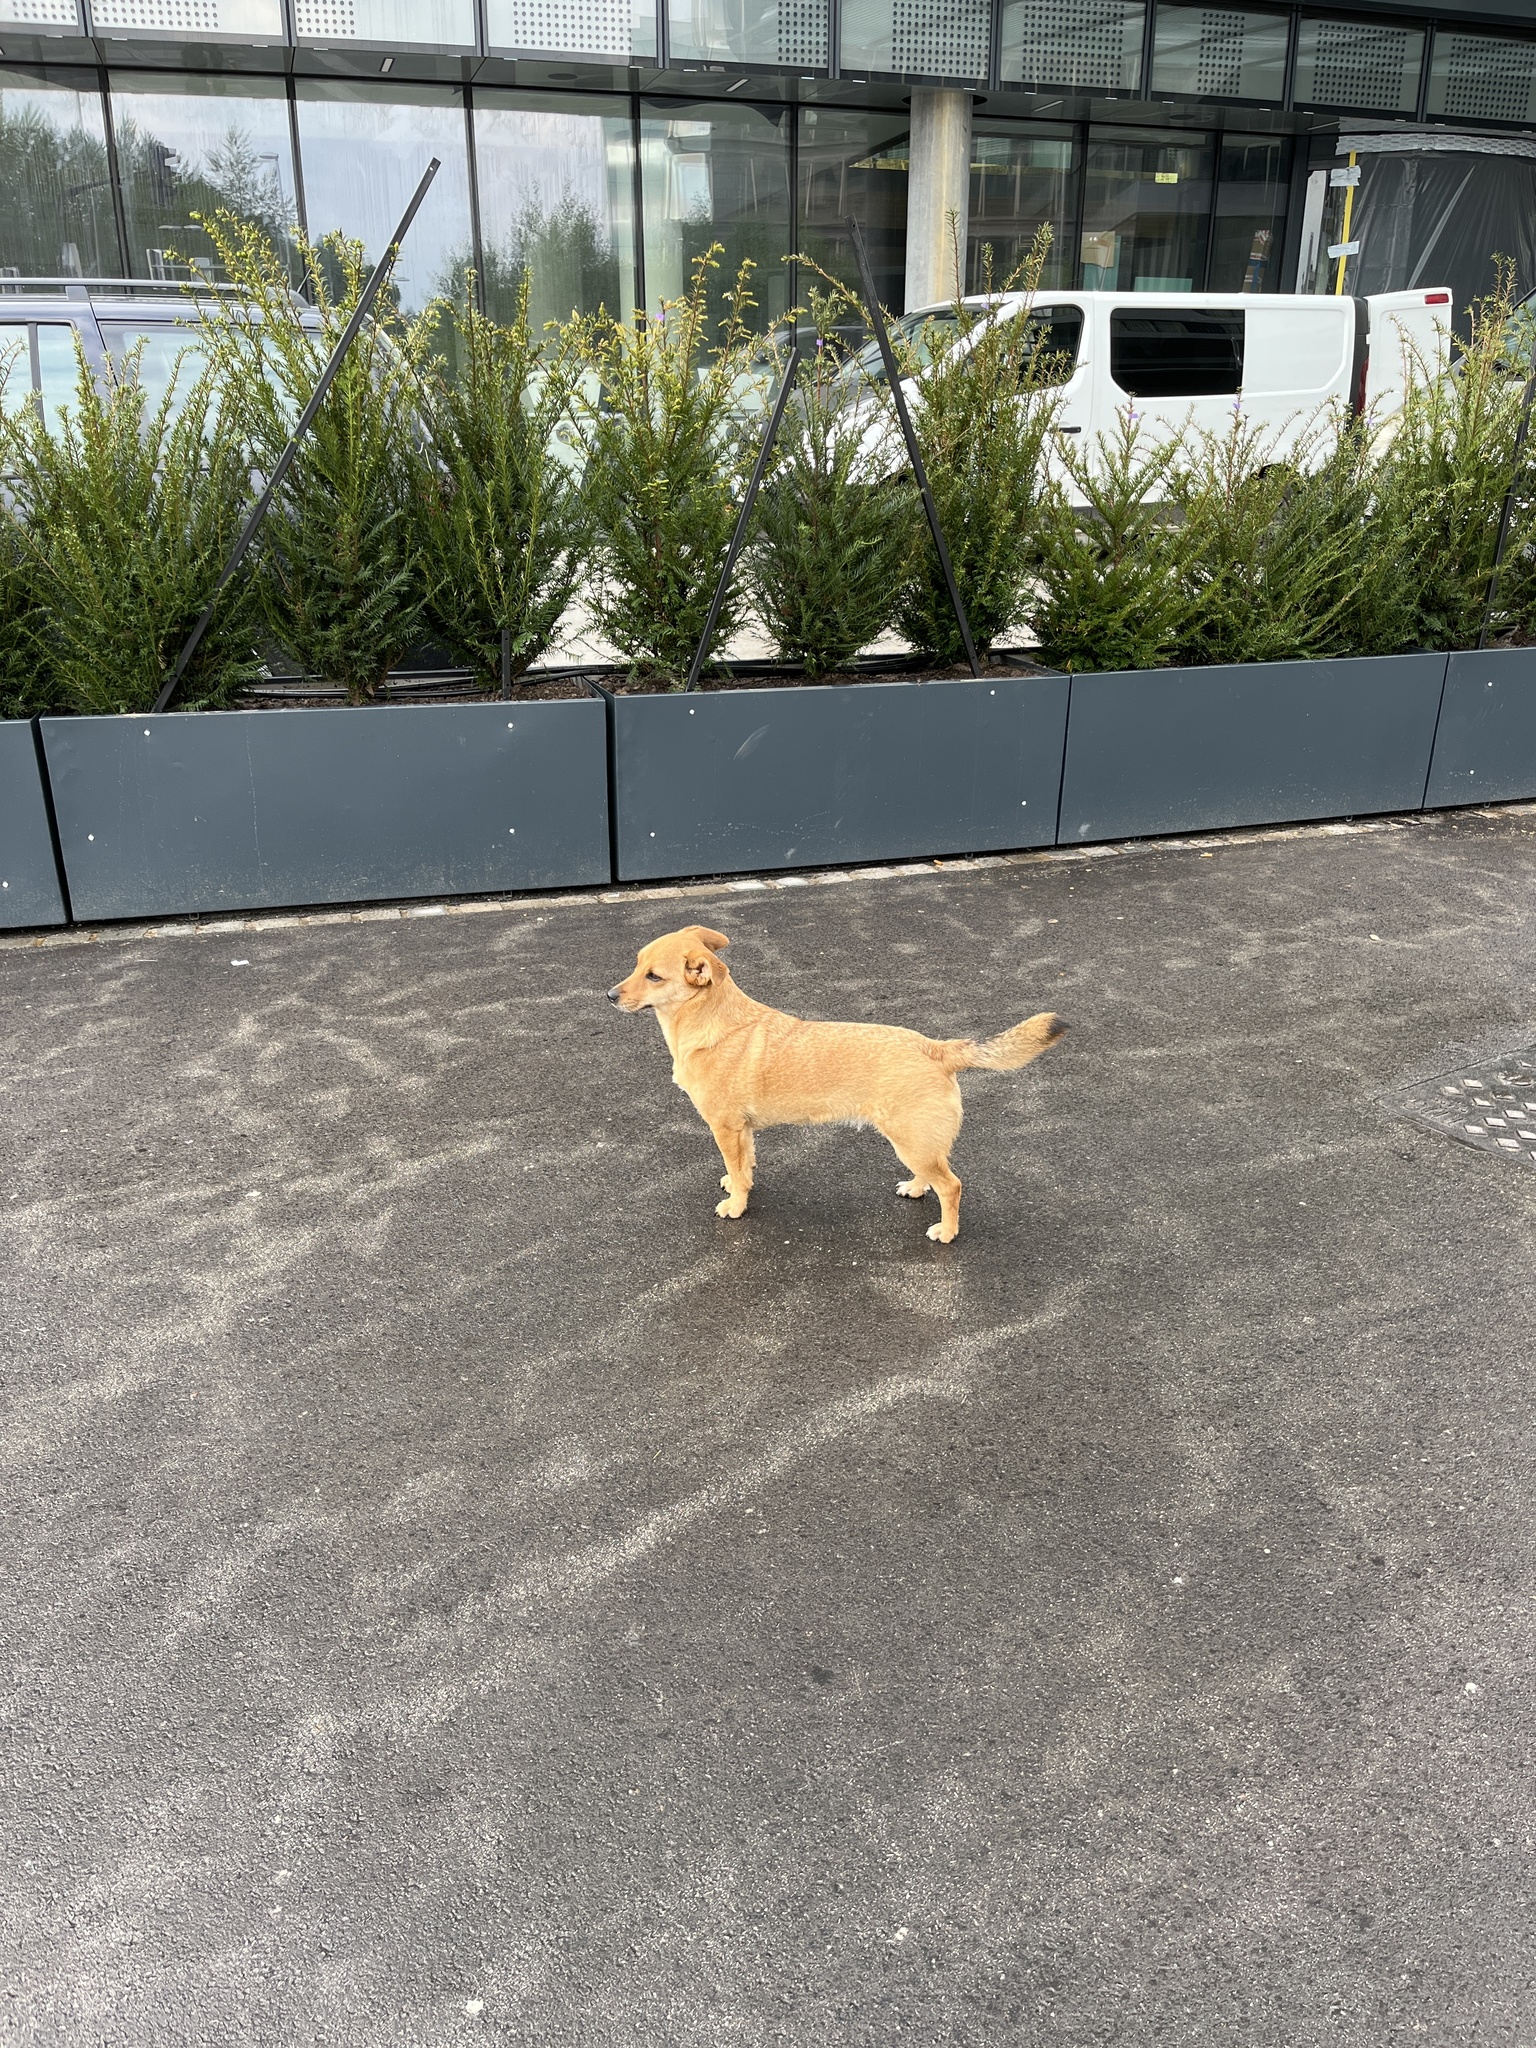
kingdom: Animalia
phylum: Chordata
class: Mammalia
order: Carnivora
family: Canidae
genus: Canis
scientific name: Canis lupus
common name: Gray wolf
